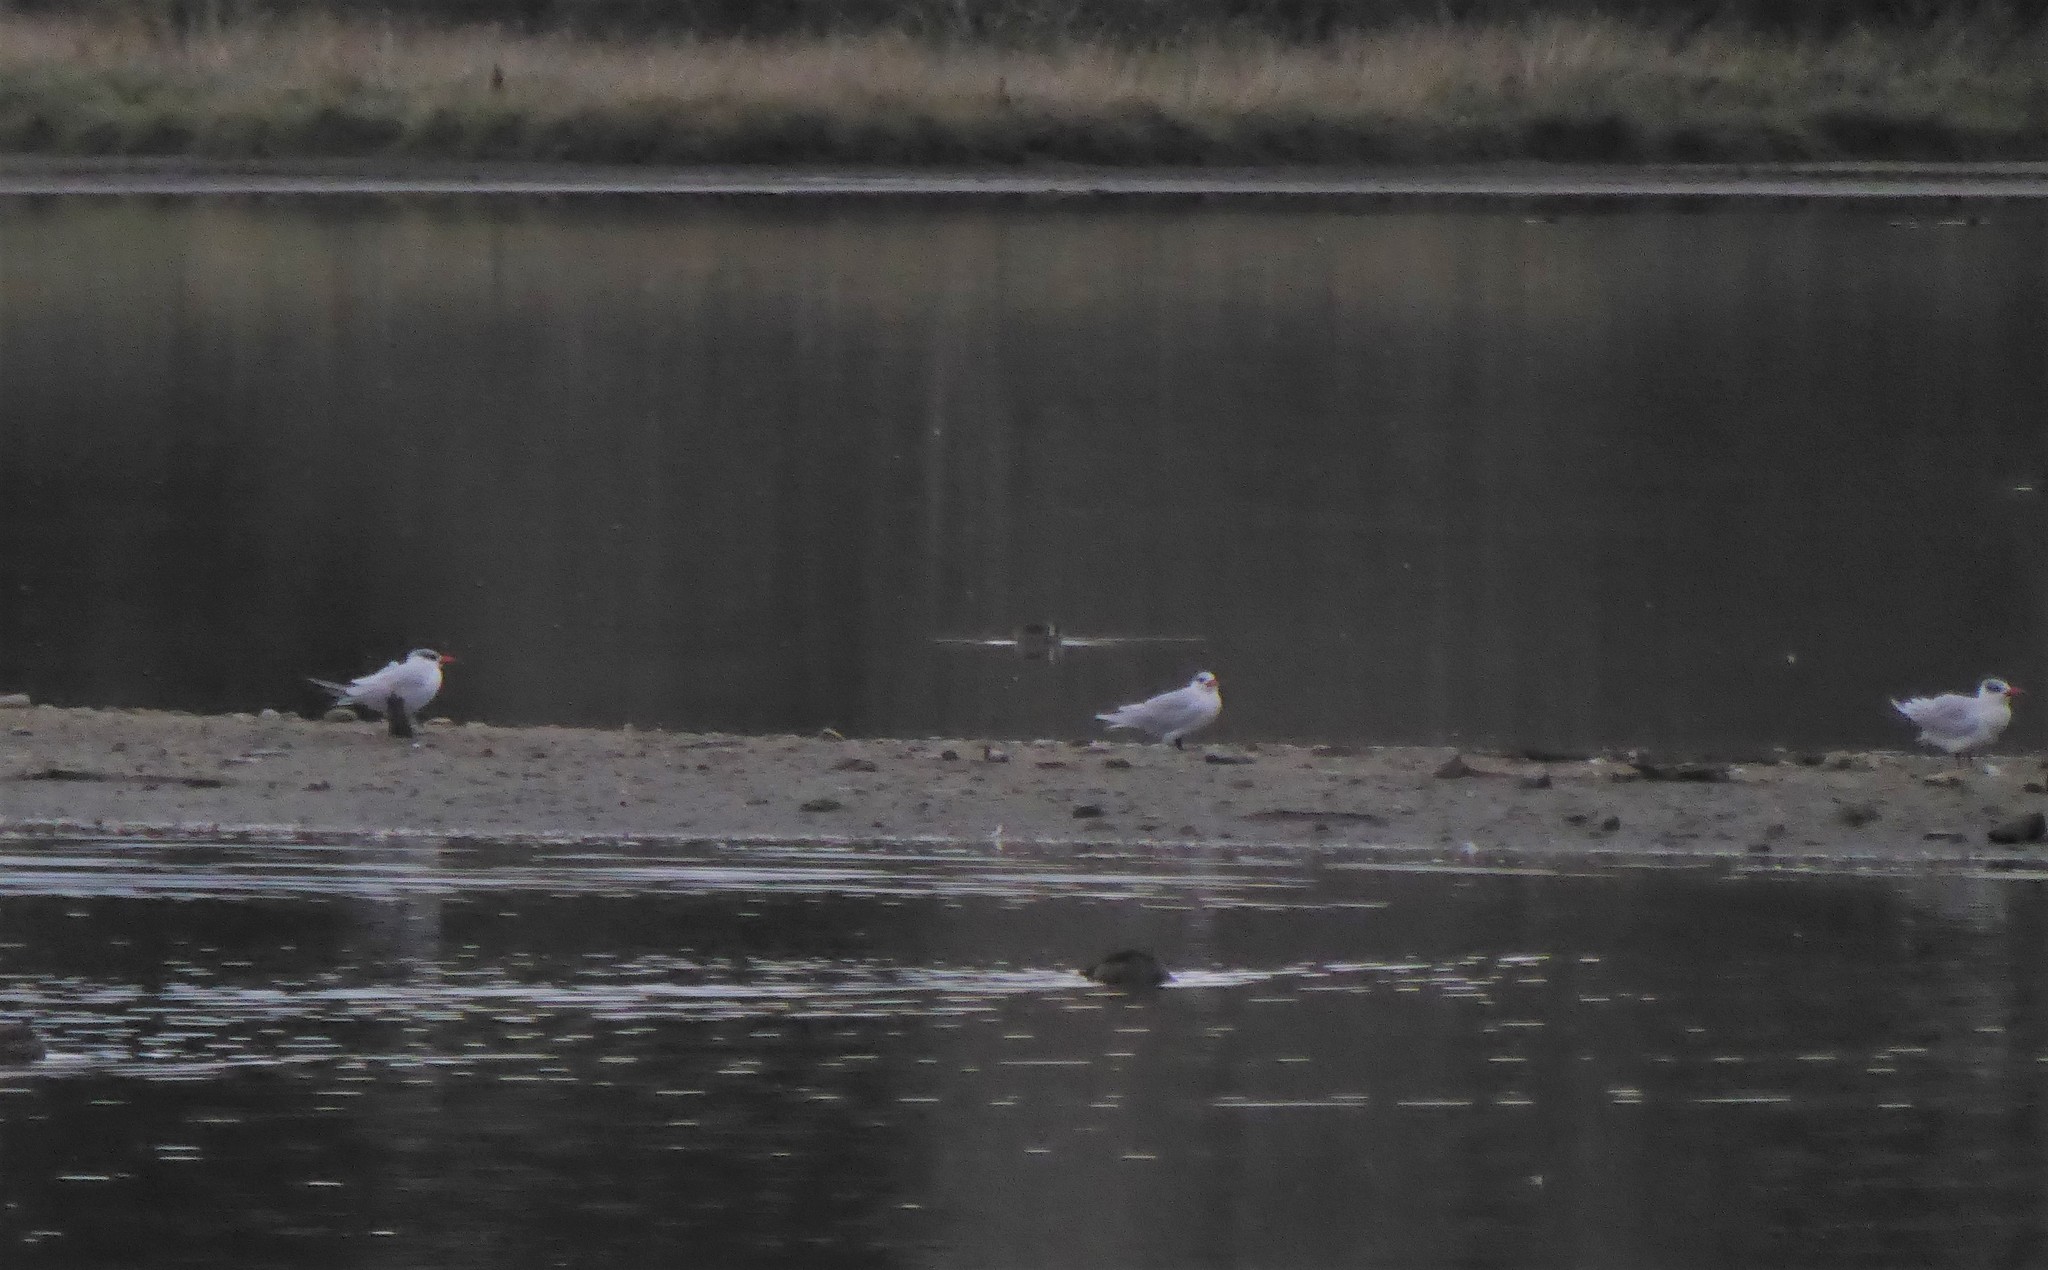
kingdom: Animalia
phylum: Chordata
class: Aves
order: Charadriiformes
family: Laridae
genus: Hydroprogne
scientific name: Hydroprogne caspia
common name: Caspian tern
